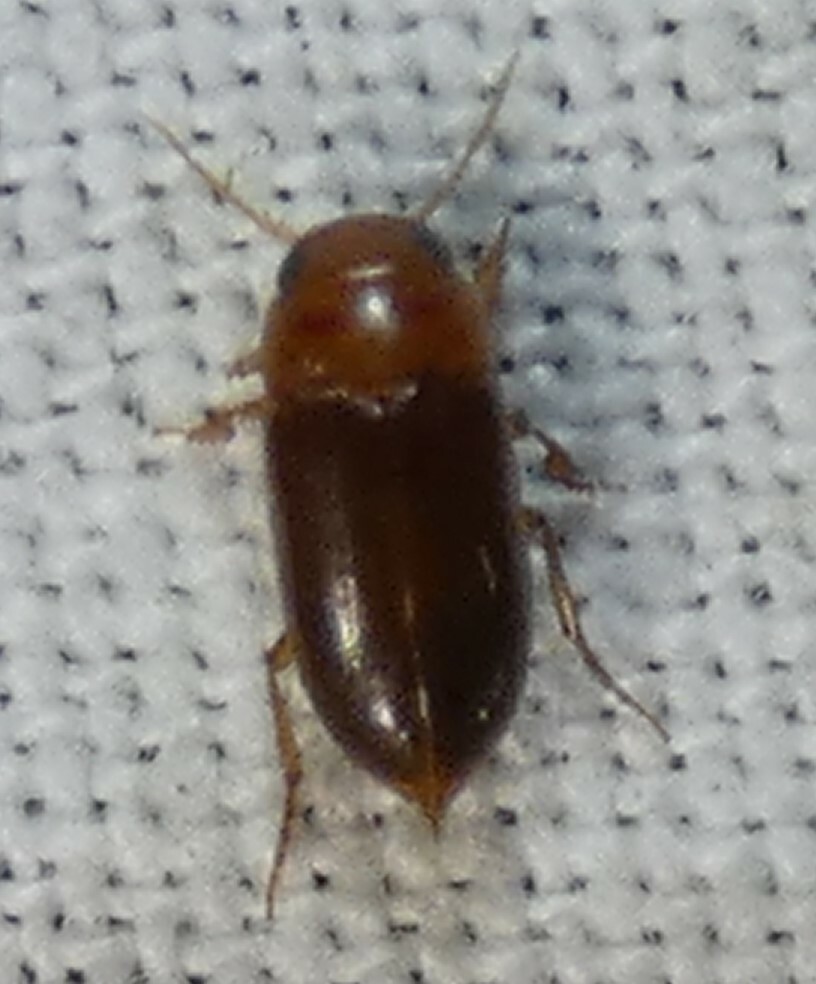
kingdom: Animalia
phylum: Arthropoda
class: Insecta
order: Coleoptera
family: Dytiscidae
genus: Celina
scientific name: Celina
